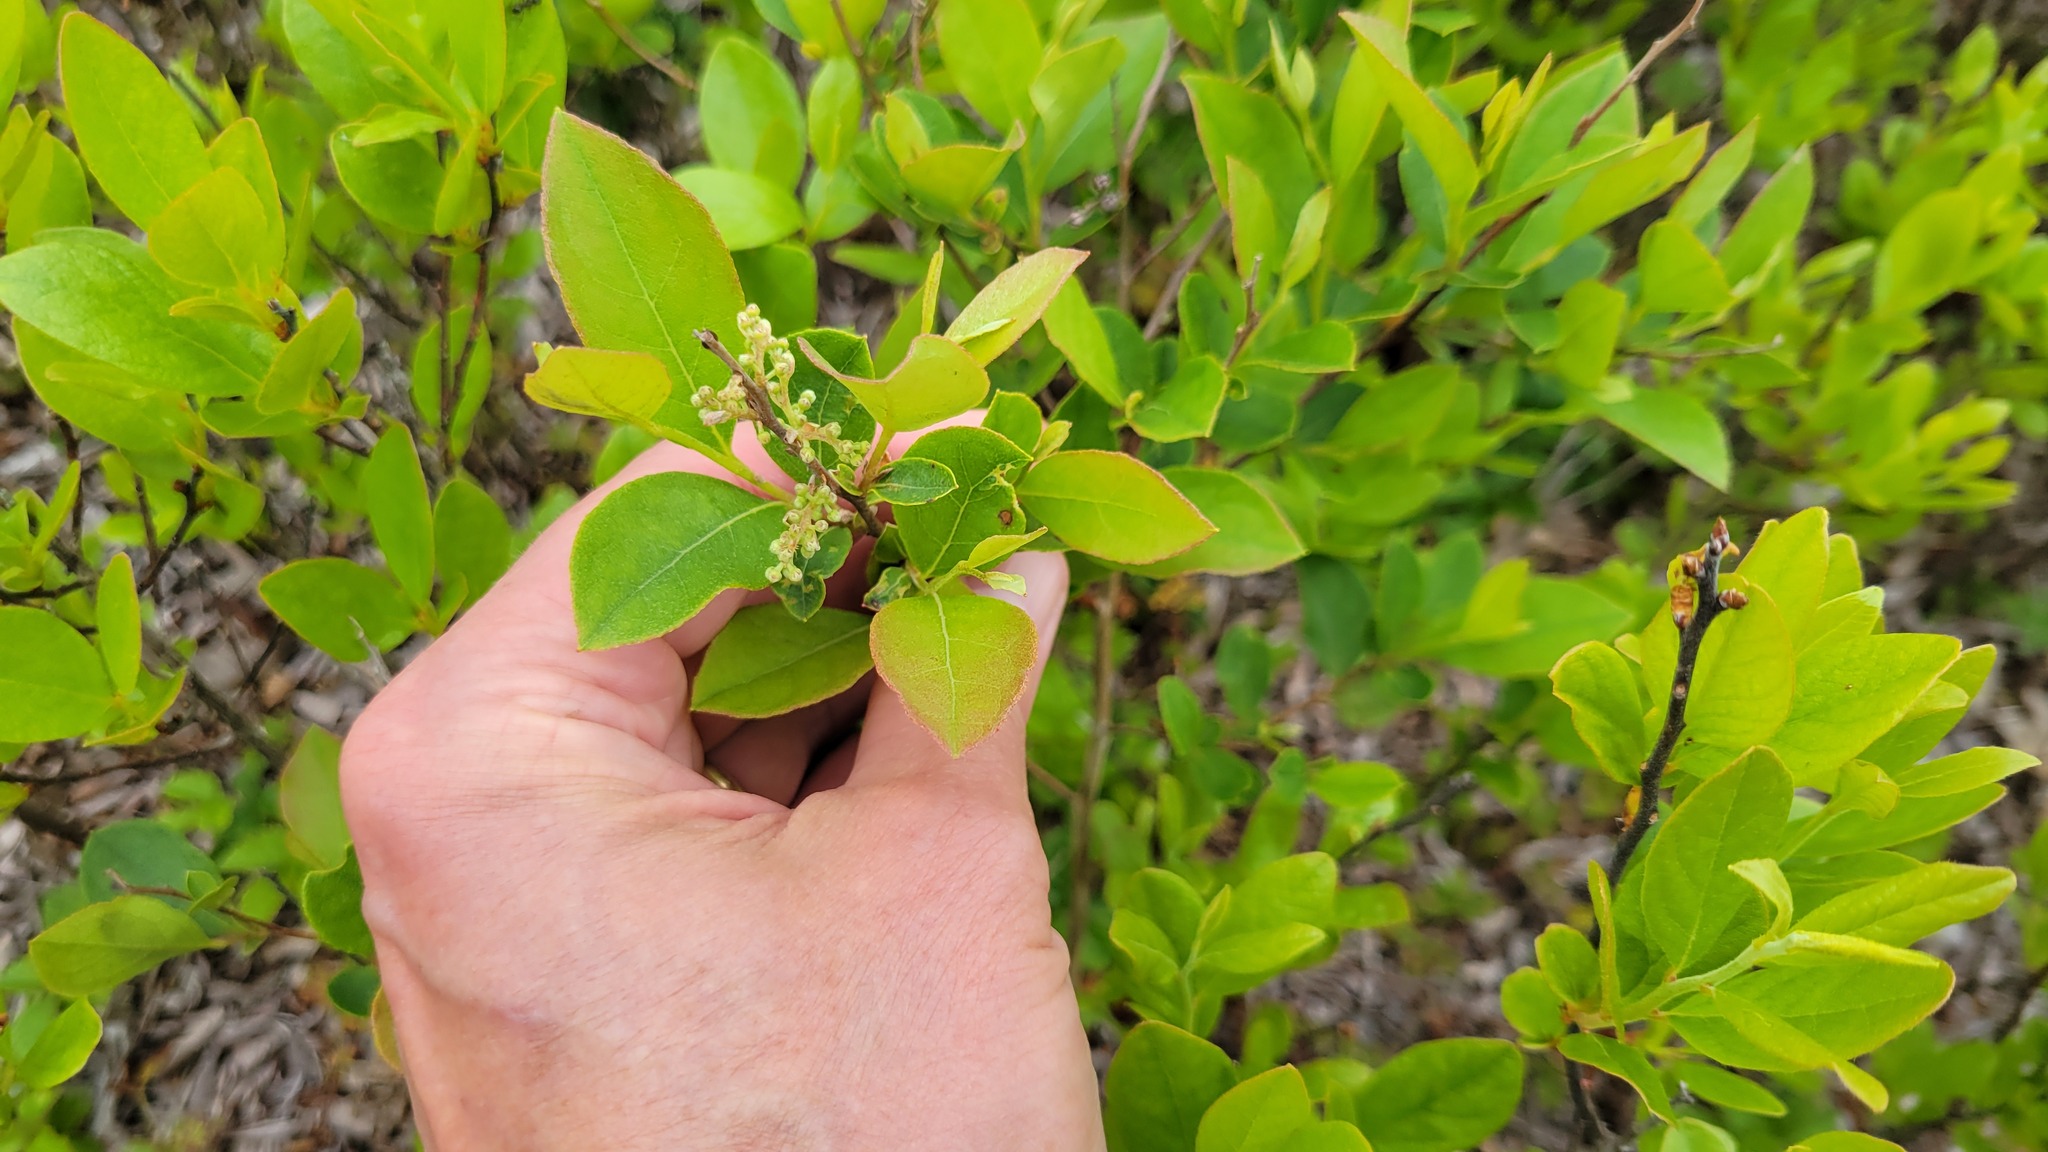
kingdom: Plantae
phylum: Tracheophyta
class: Magnoliopsida
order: Ericales
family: Ericaceae
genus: Lyonia
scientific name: Lyonia ligustrina
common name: Maleberry
